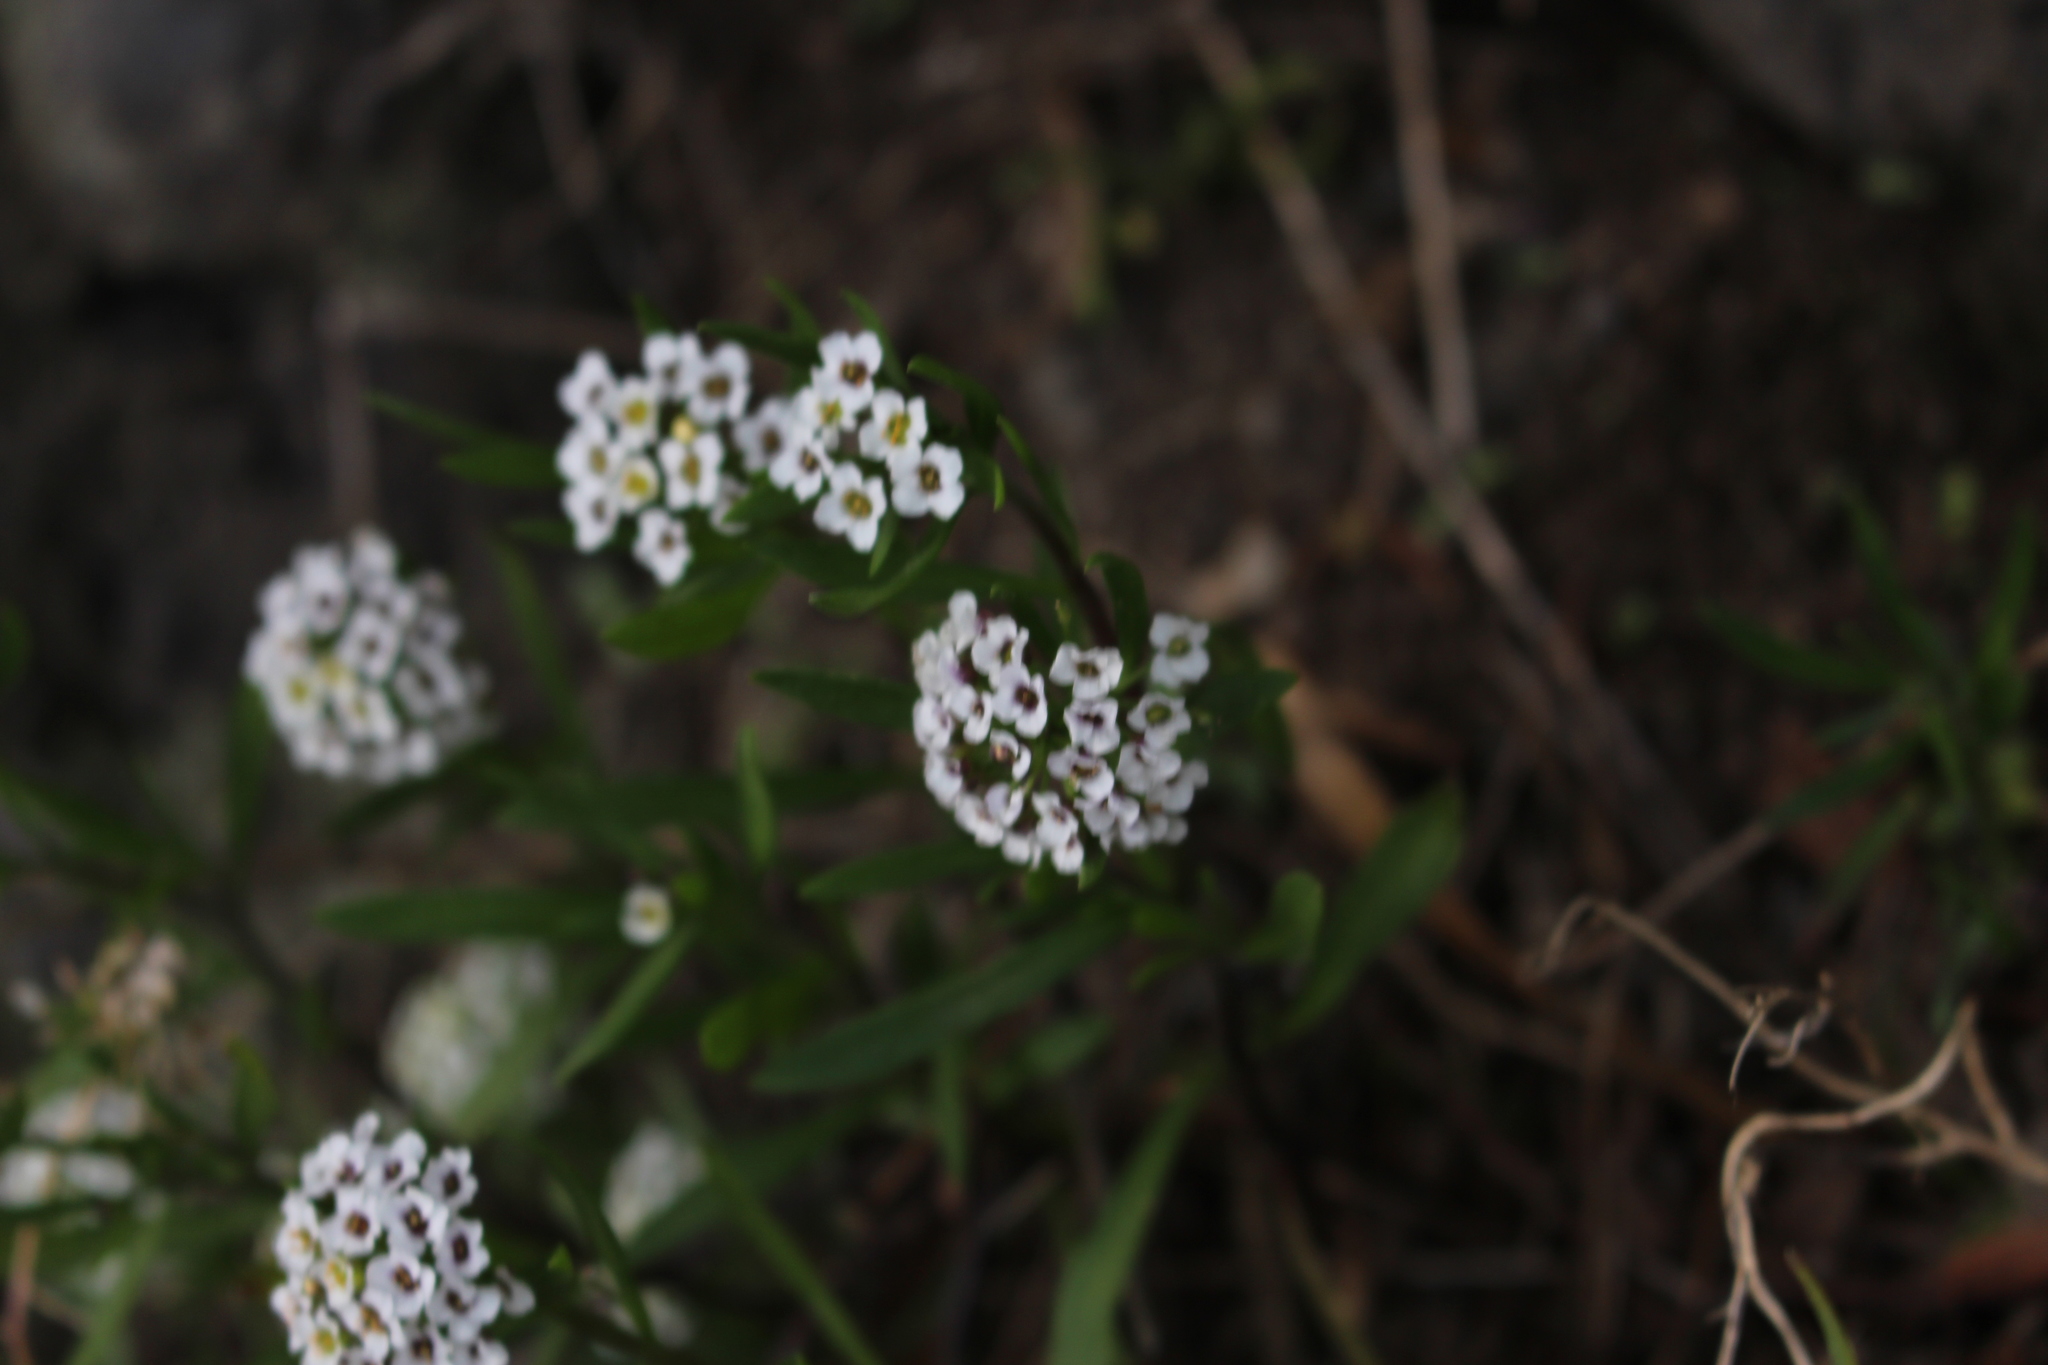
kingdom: Plantae
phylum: Tracheophyta
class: Magnoliopsida
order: Brassicales
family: Brassicaceae
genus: Lobularia
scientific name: Lobularia maritima
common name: Sweet alison
